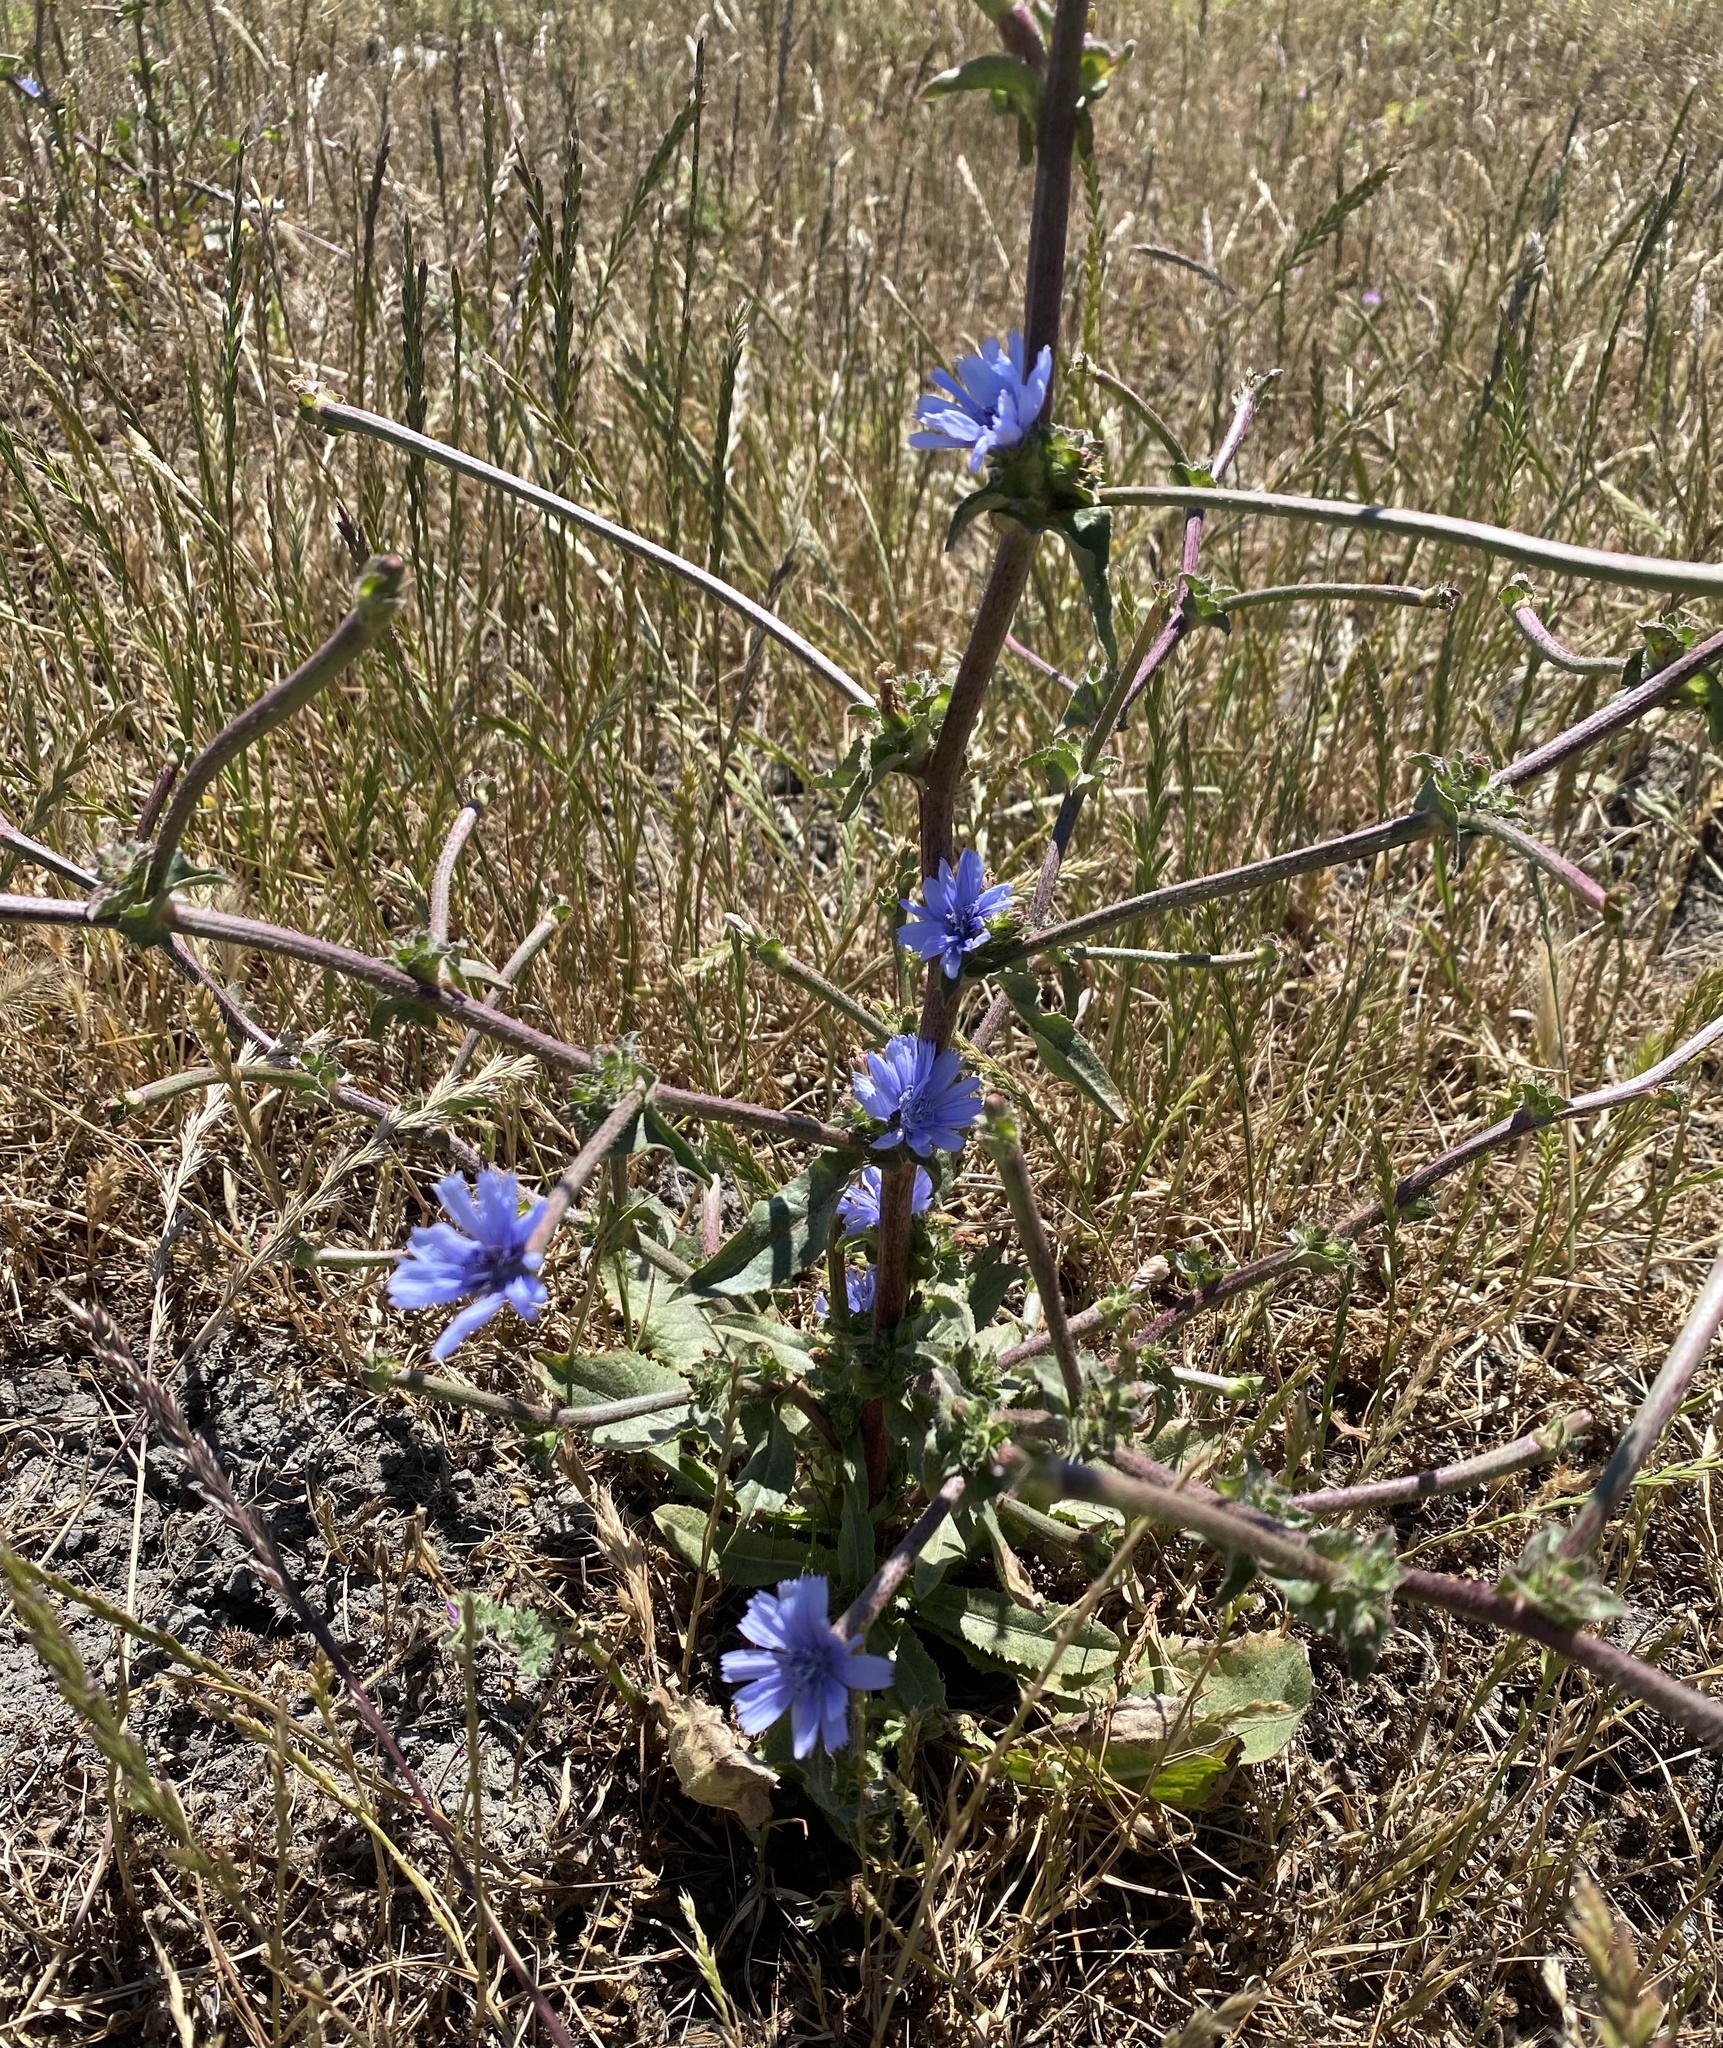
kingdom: Plantae
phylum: Tracheophyta
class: Magnoliopsida
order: Asterales
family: Asteraceae
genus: Cichorium
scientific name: Cichorium intybus
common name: Chicory
